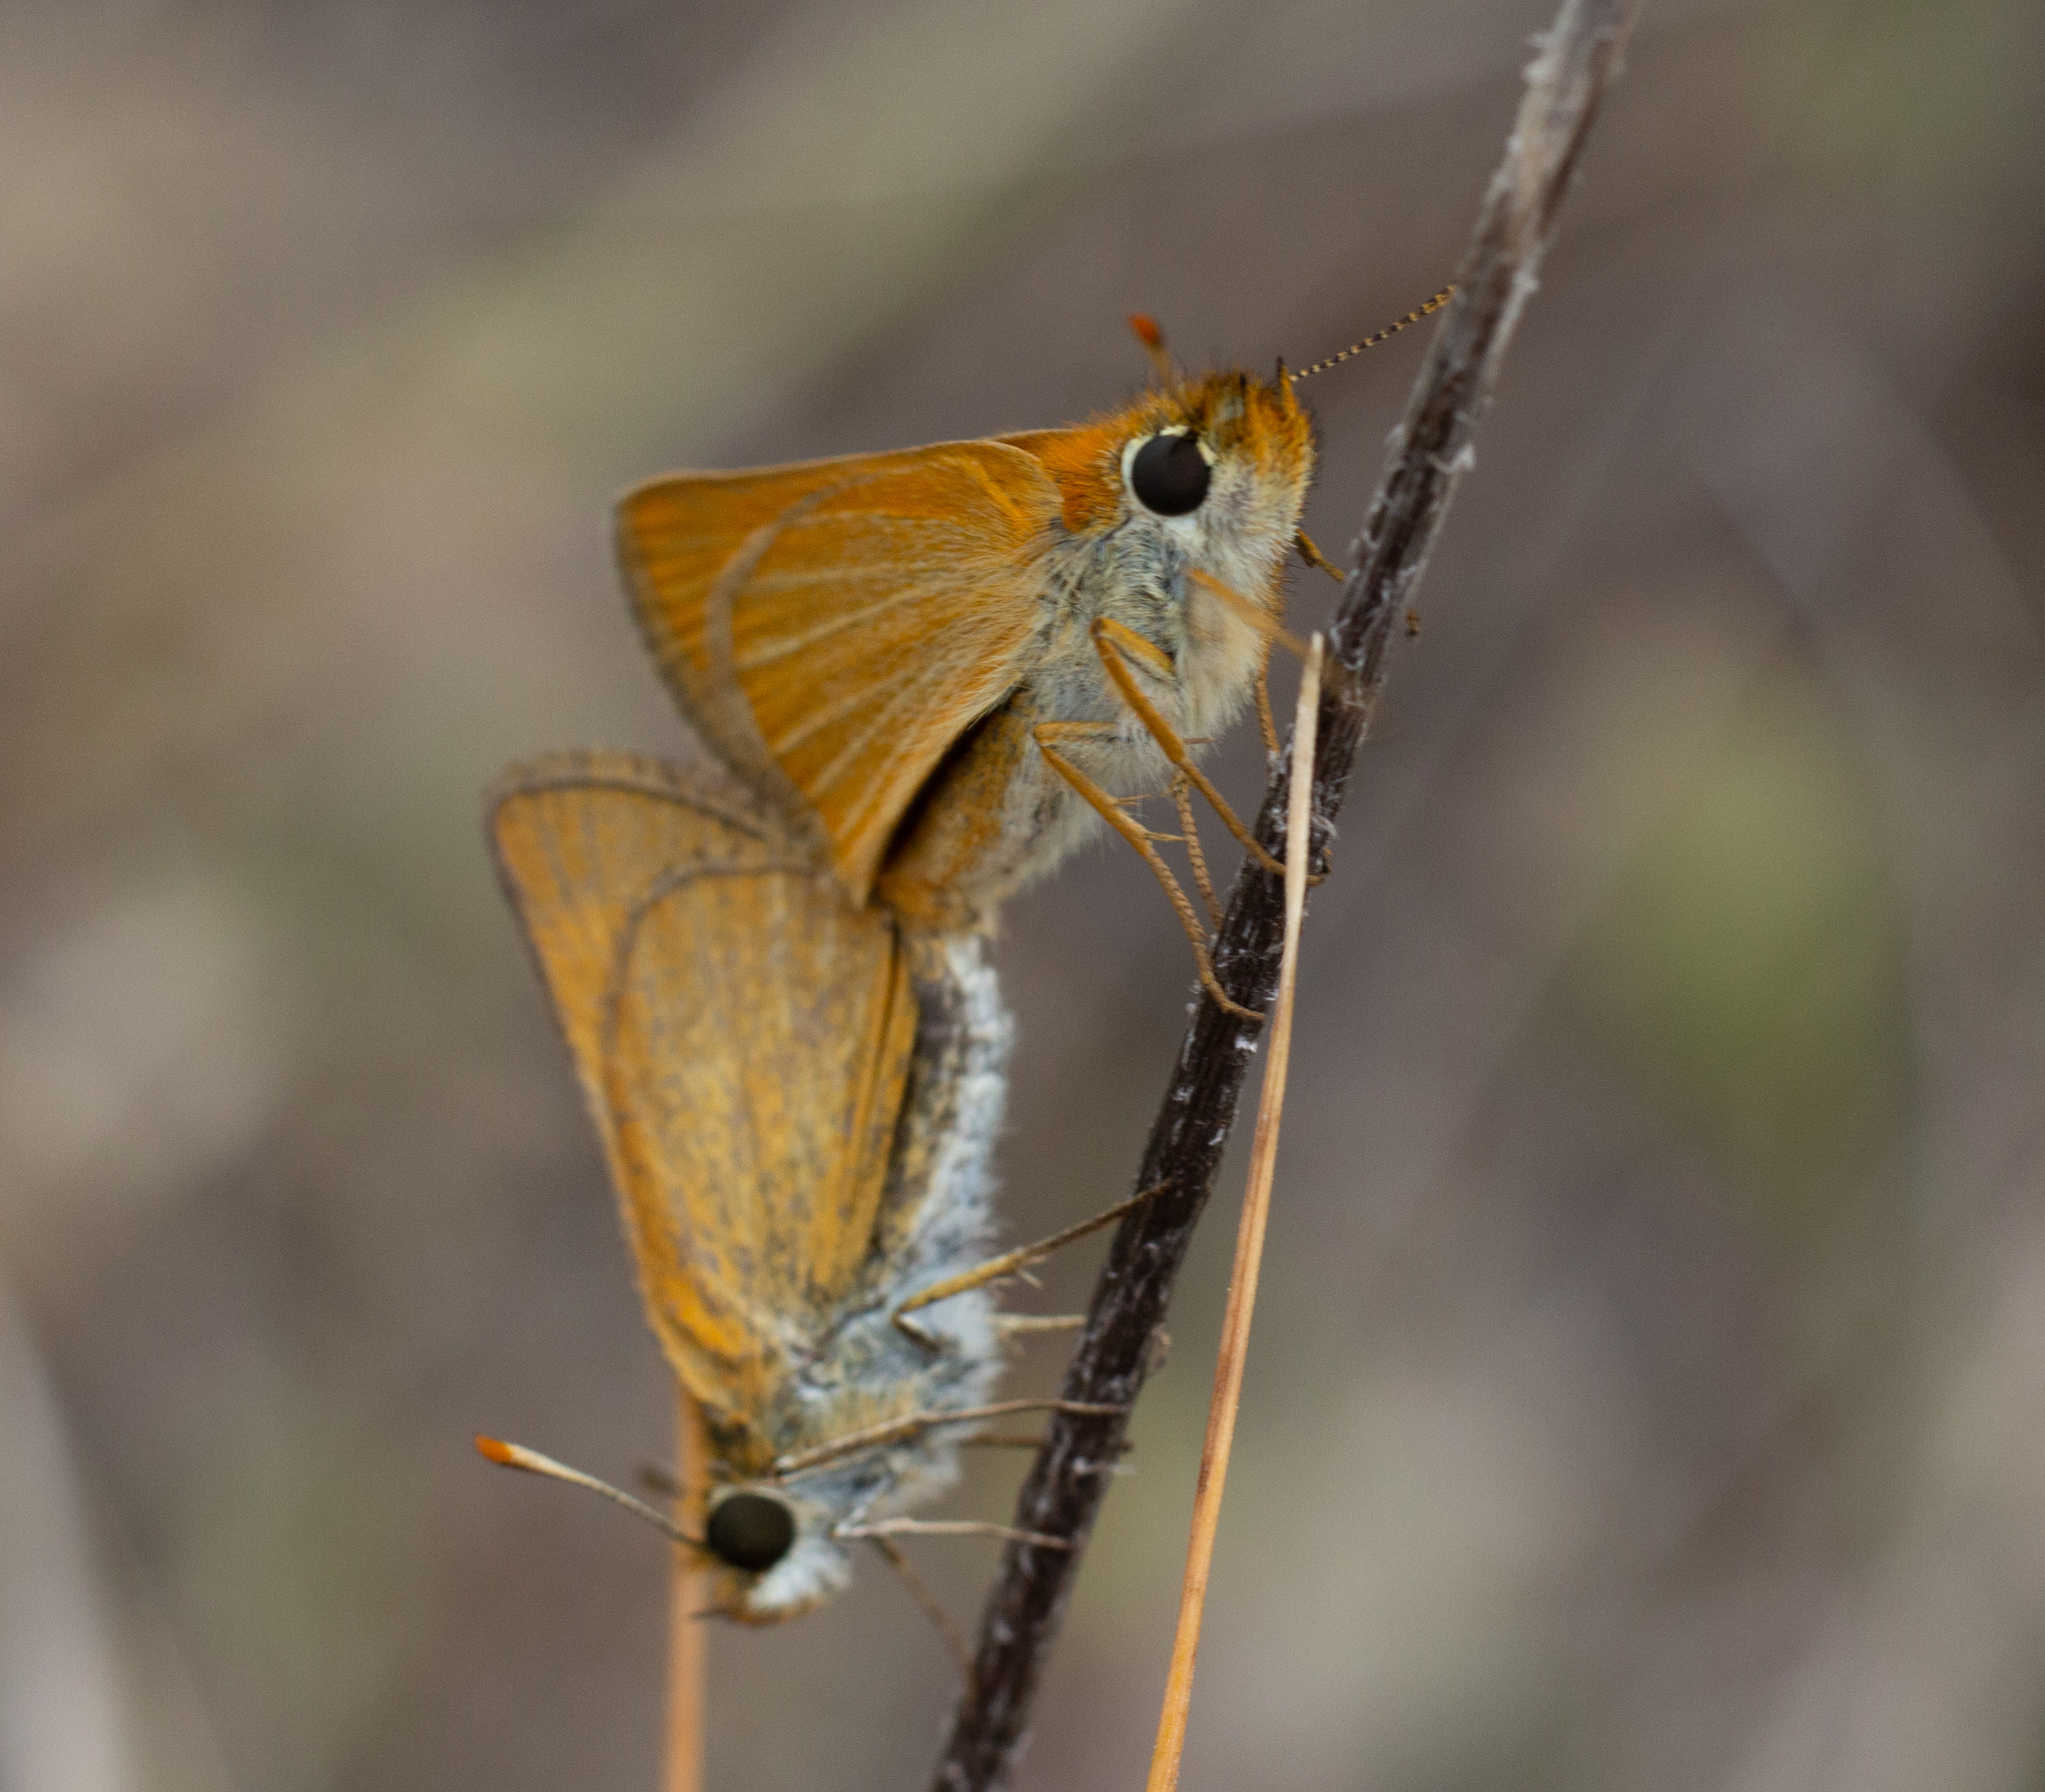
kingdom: Animalia
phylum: Arthropoda
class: Insecta
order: Lepidoptera
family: Hesperiidae
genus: Thymelicus
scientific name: Thymelicus acteon
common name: Lulworth skipper
